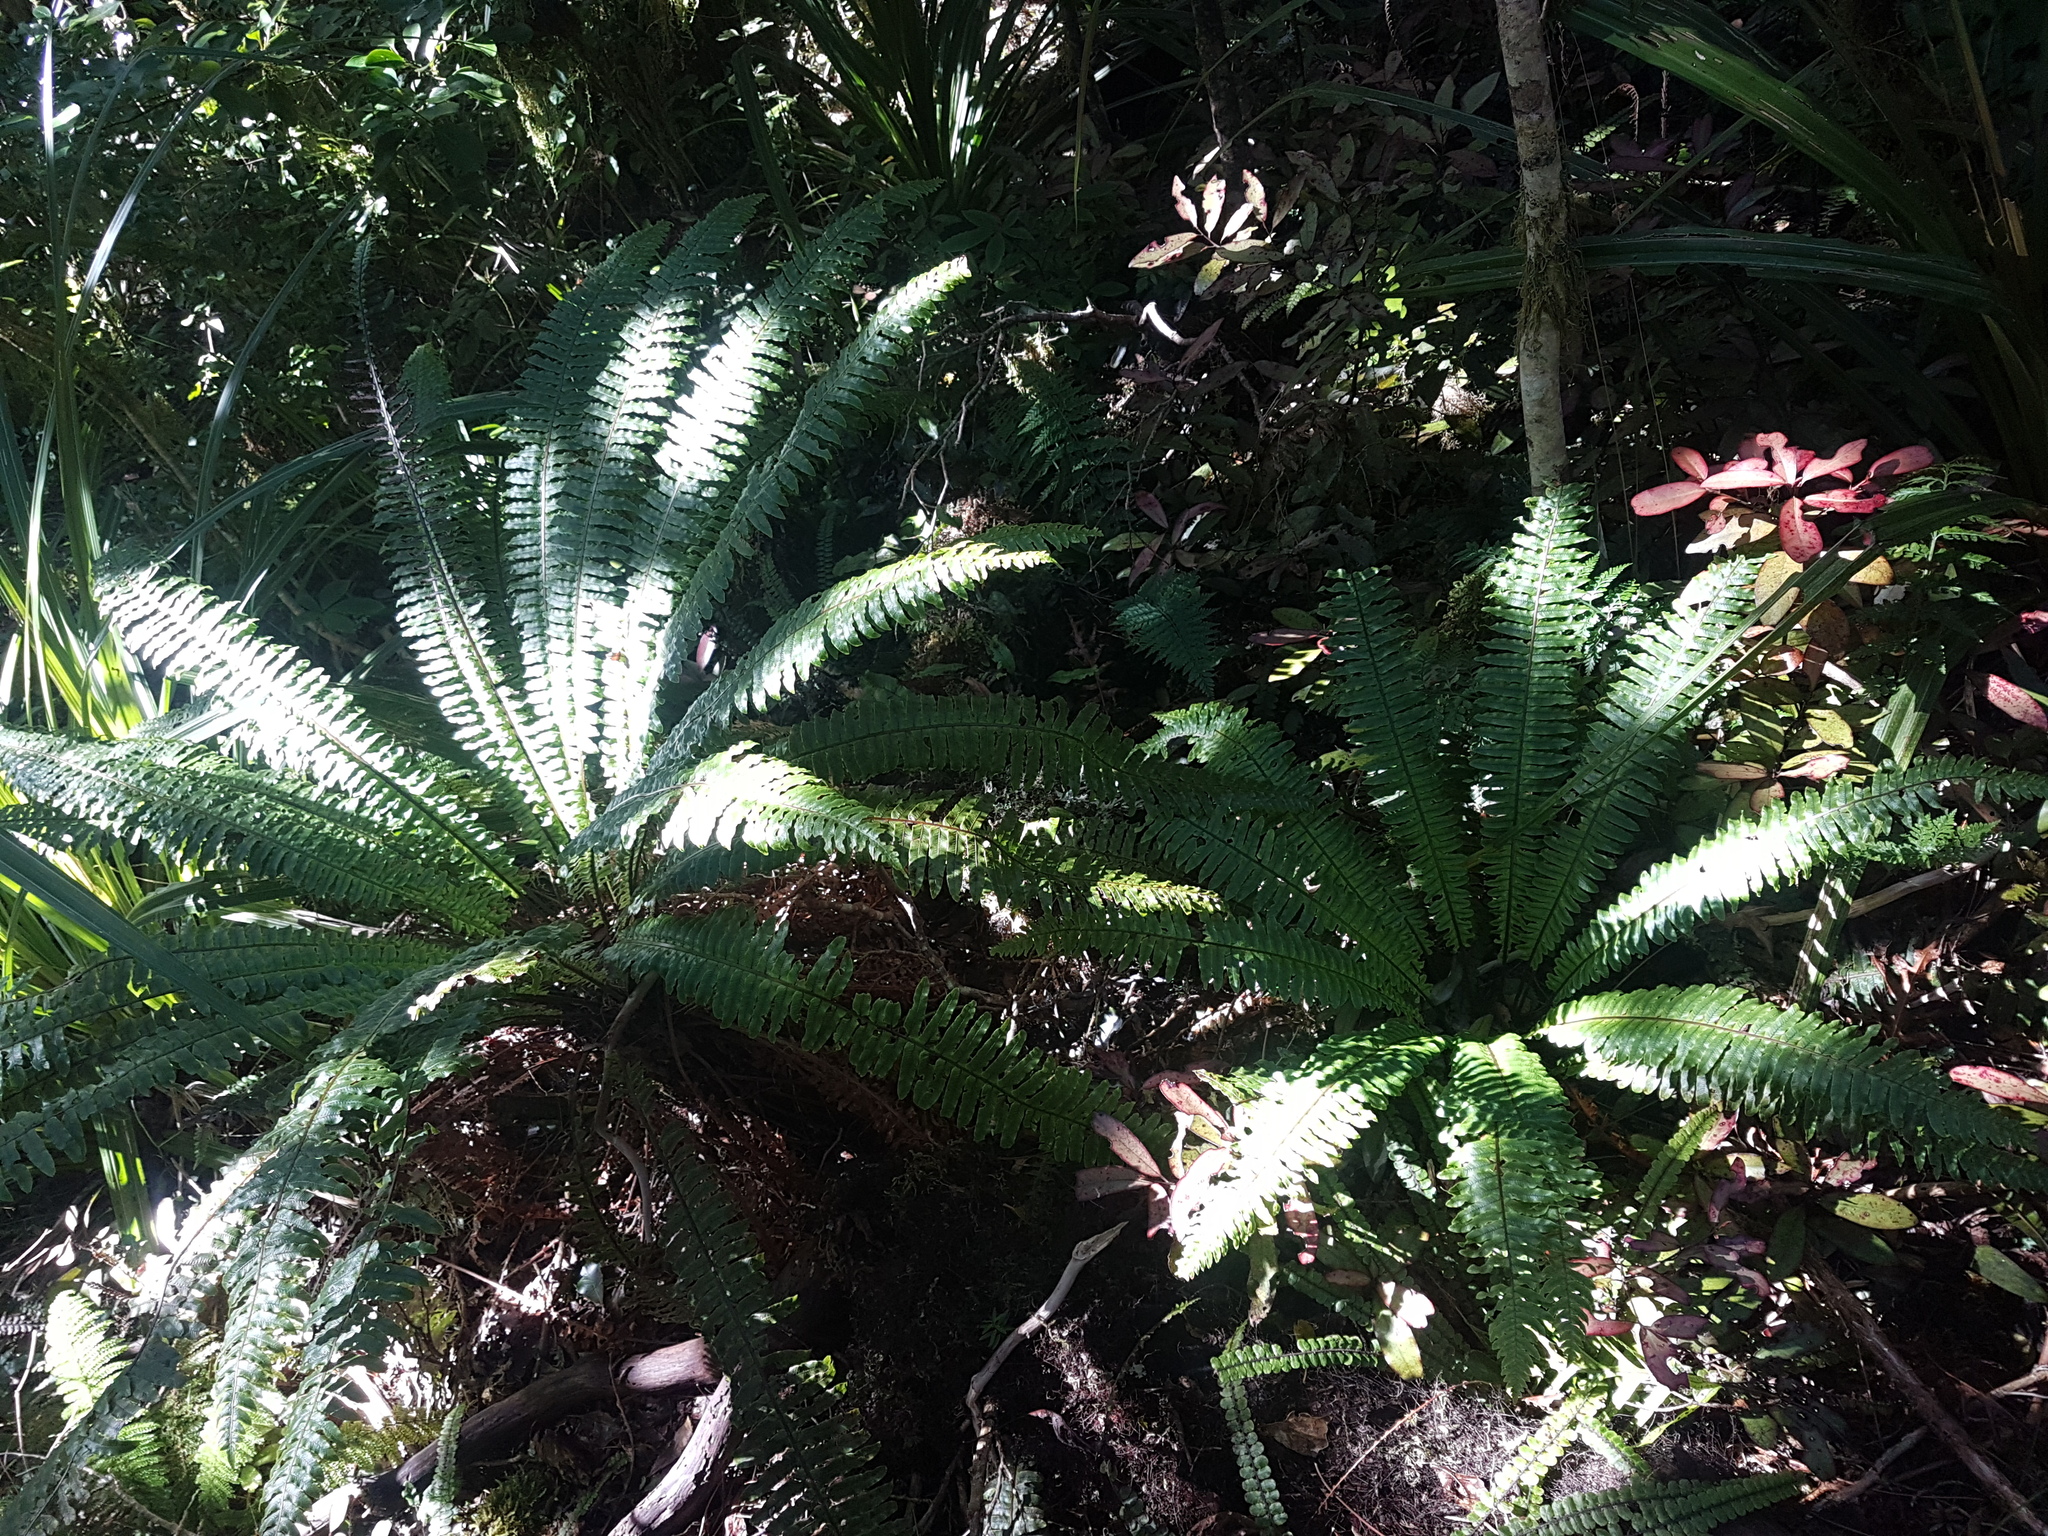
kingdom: Plantae
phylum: Tracheophyta
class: Polypodiopsida
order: Polypodiales
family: Blechnaceae
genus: Lomaria
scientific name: Lomaria discolor
